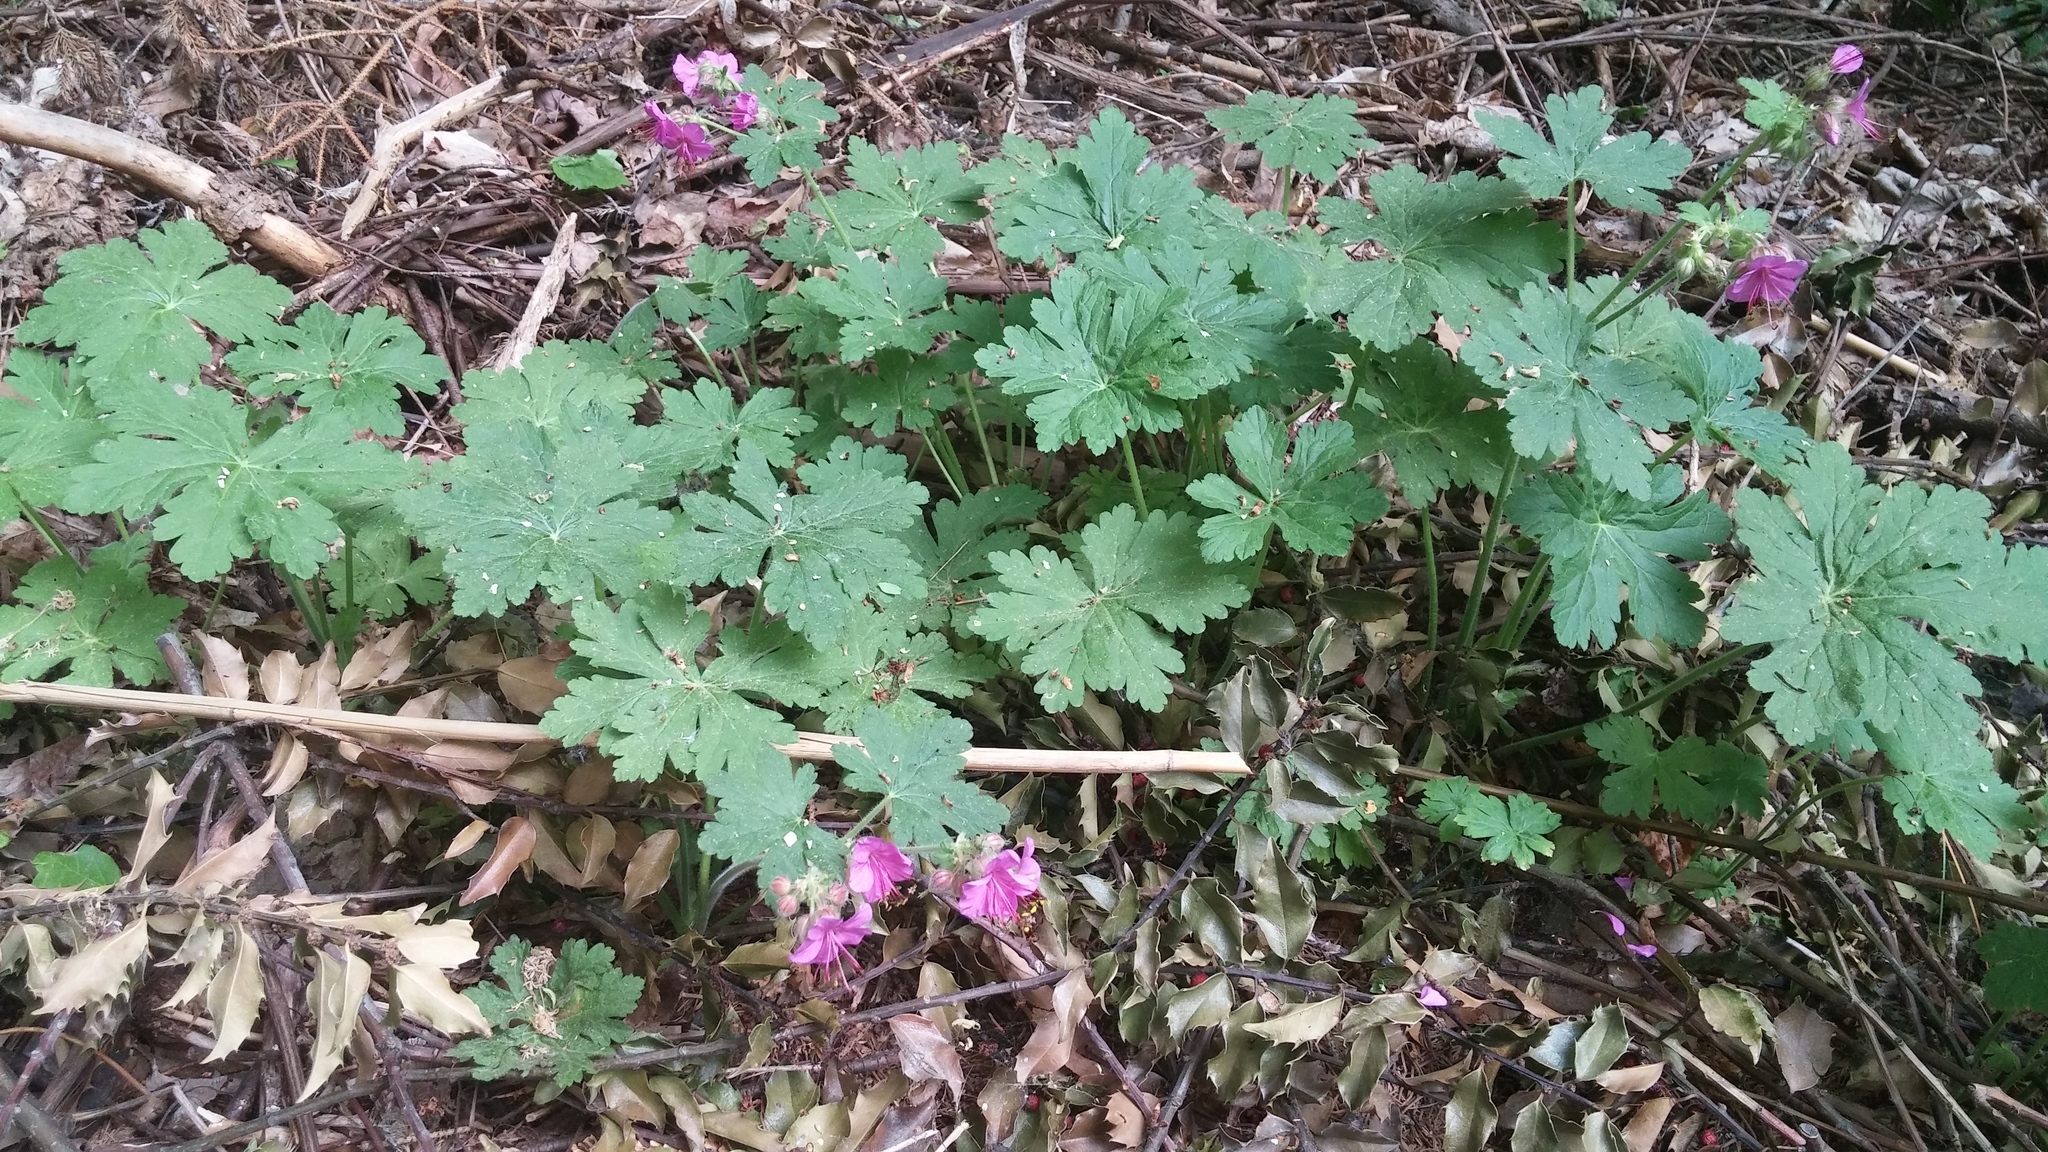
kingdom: Plantae
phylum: Tracheophyta
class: Magnoliopsida
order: Geraniales
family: Geraniaceae
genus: Geranium
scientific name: Geranium macrorrhizum
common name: Rock crane's-bill
